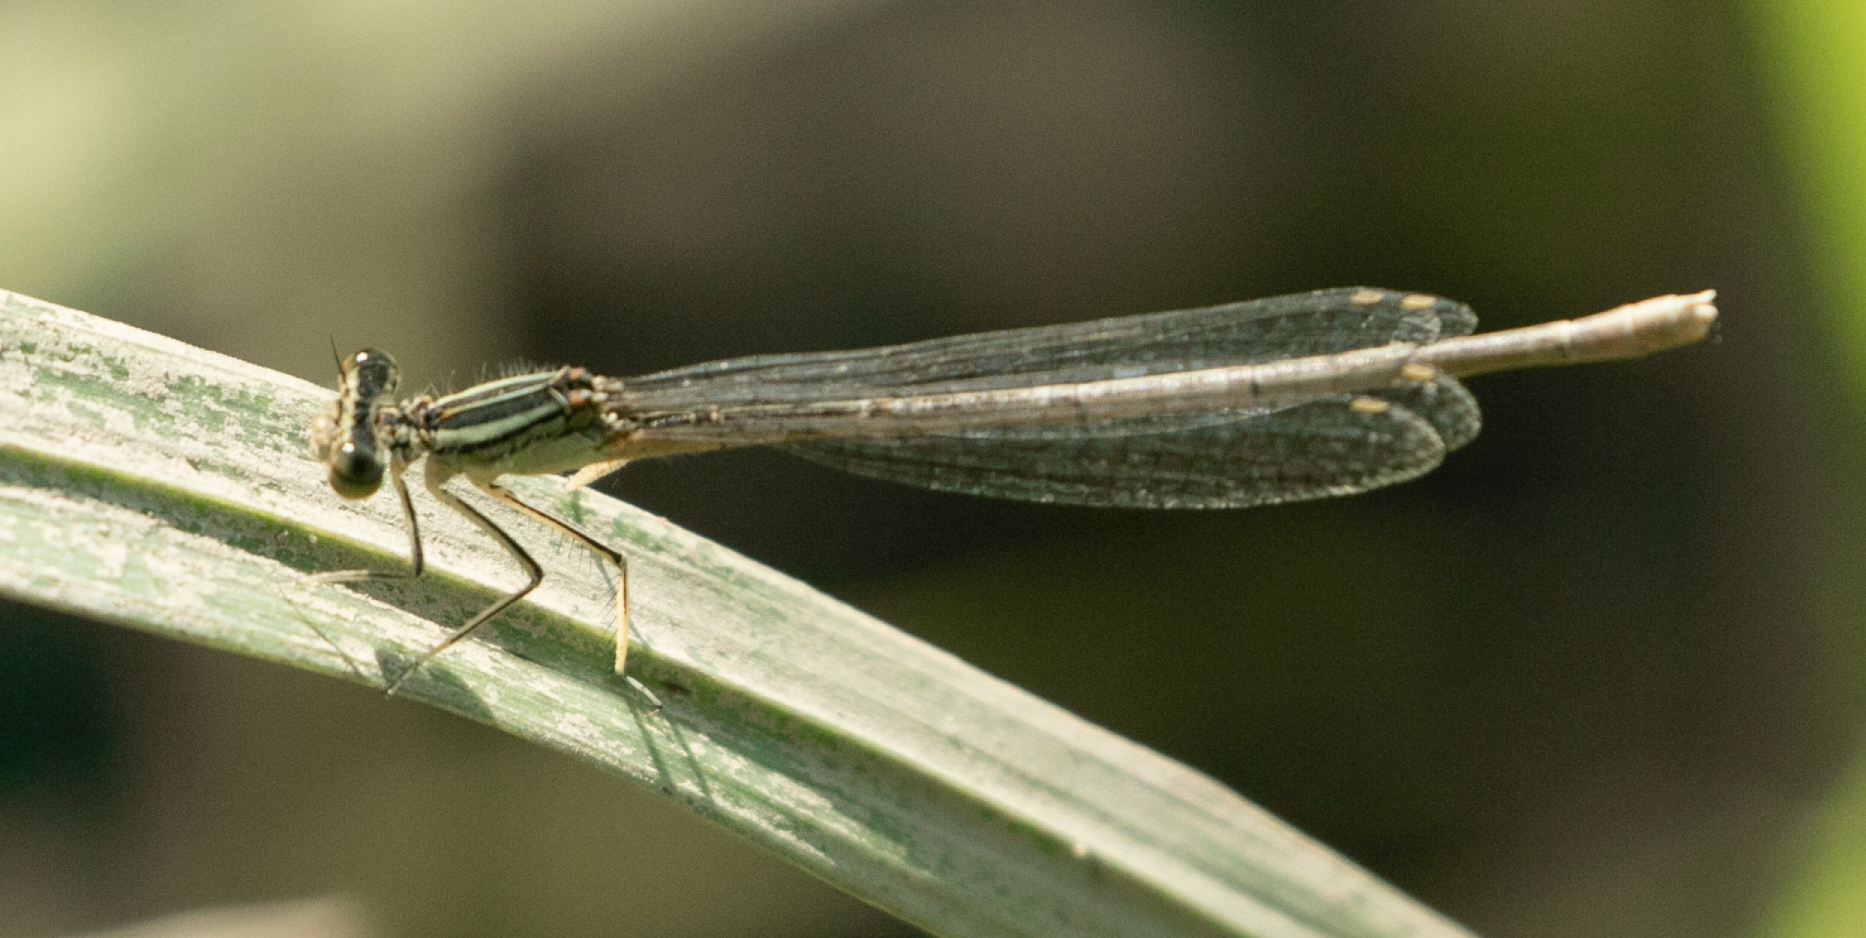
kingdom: Animalia
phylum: Arthropoda
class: Insecta
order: Odonata
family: Platycnemididae
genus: Platycnemis
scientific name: Platycnemis pennipes
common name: White-legged damselfly
